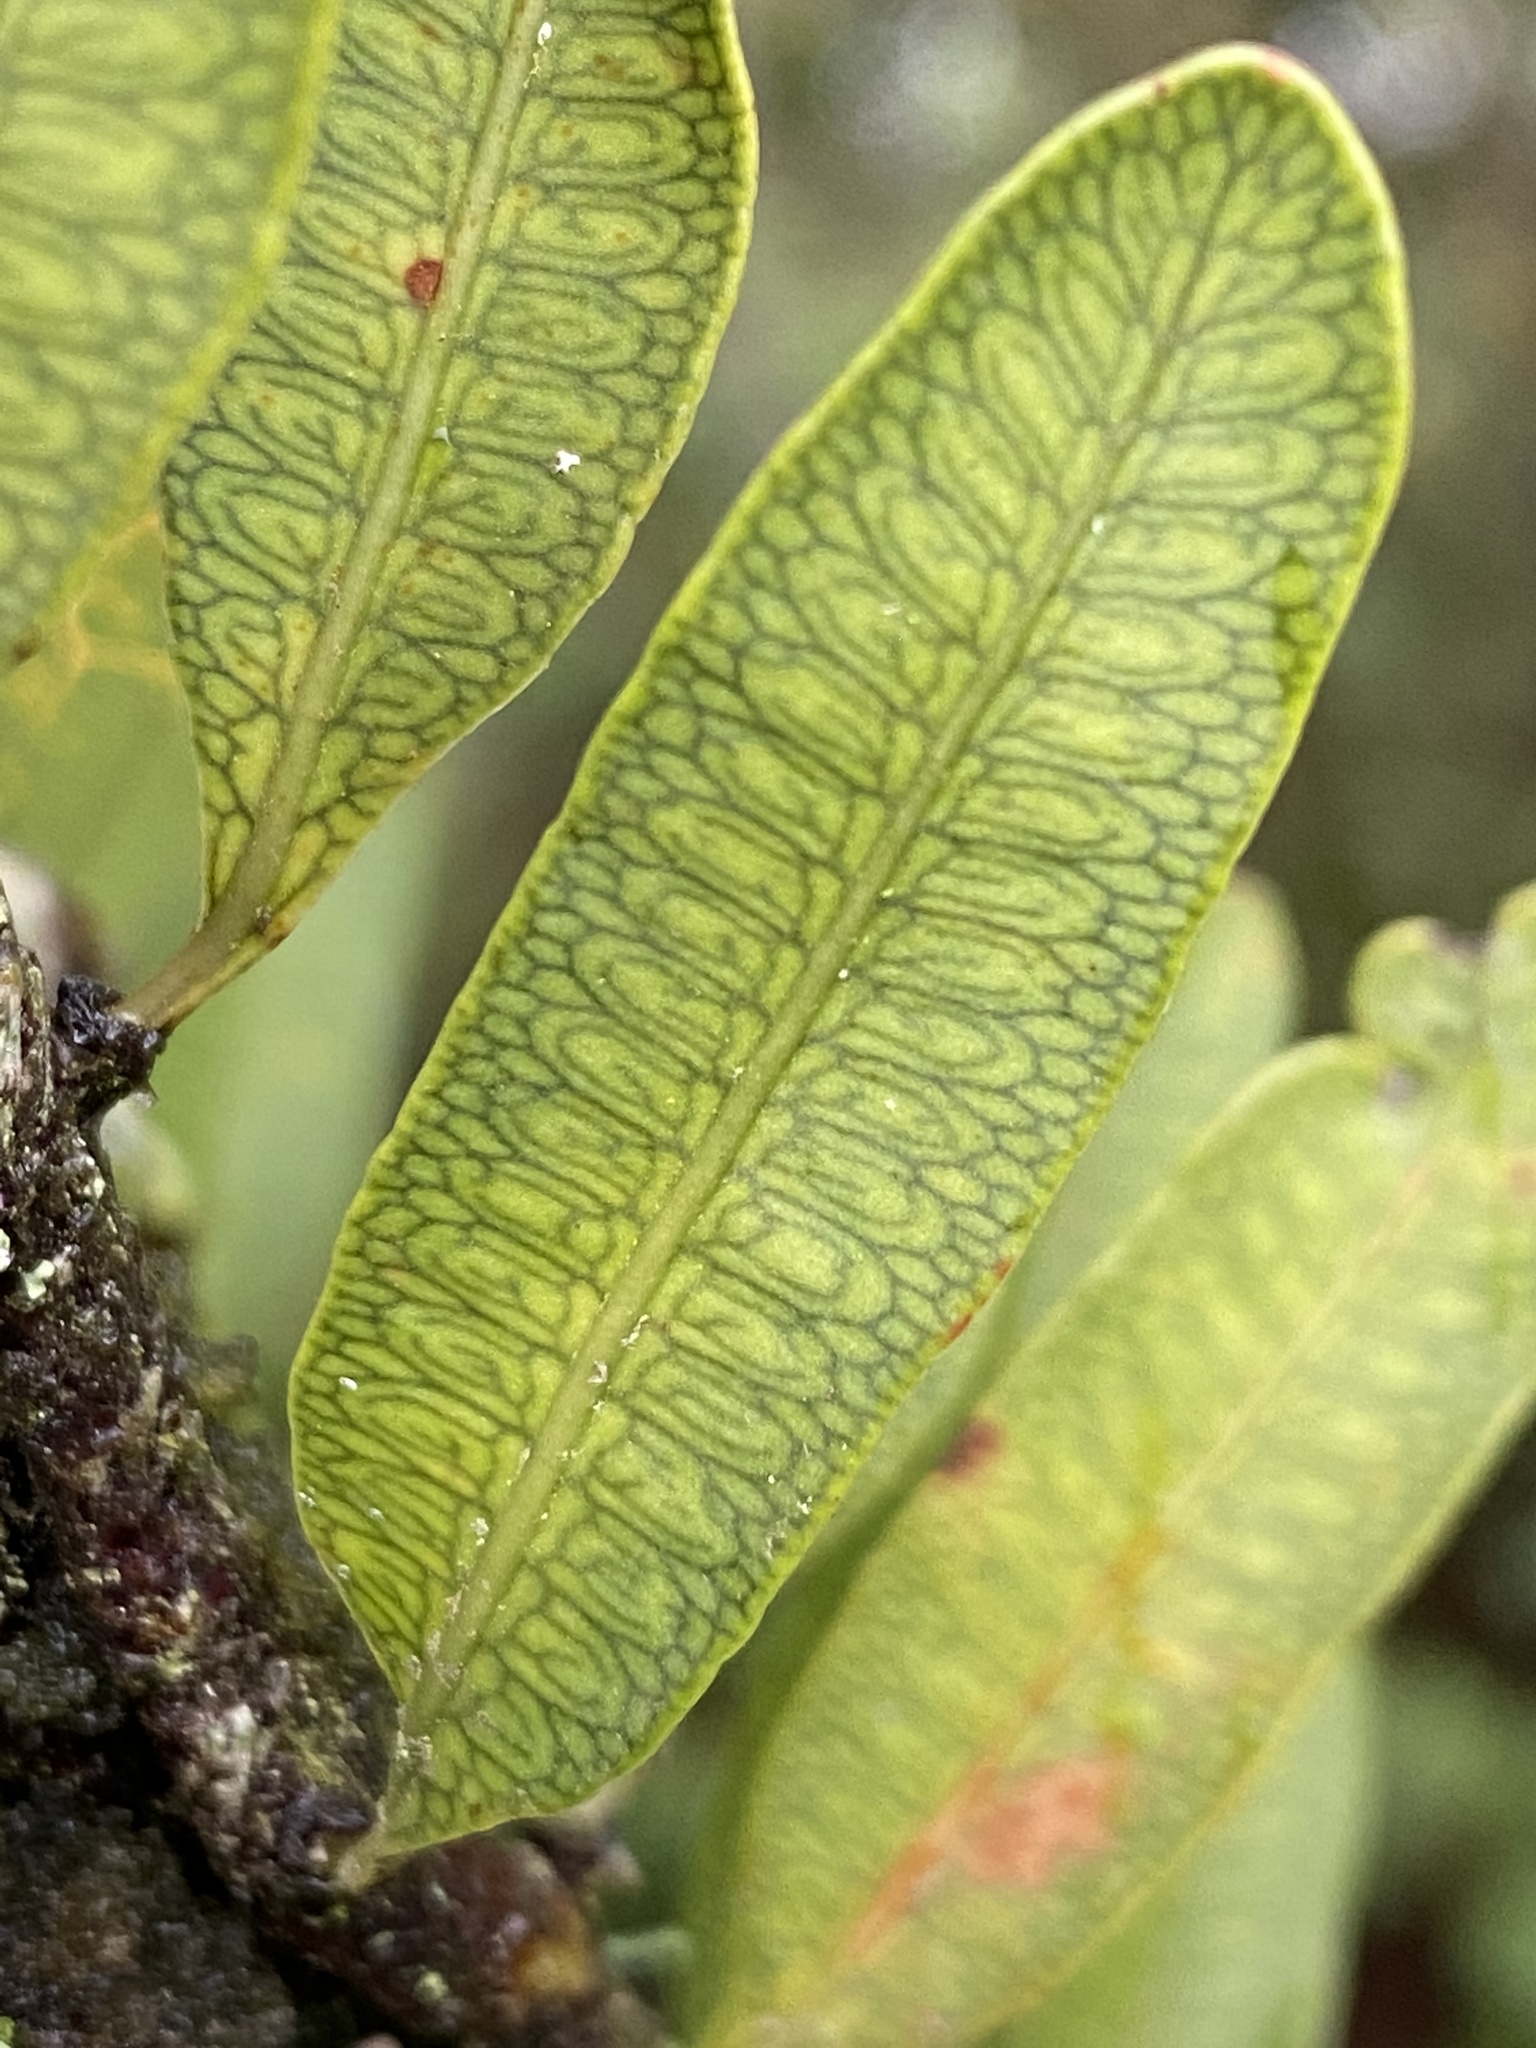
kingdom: Plantae
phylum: Tracheophyta
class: Polypodiopsida
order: Polypodiales
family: Polypodiaceae
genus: Microgramma
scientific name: Microgramma squamulosa
